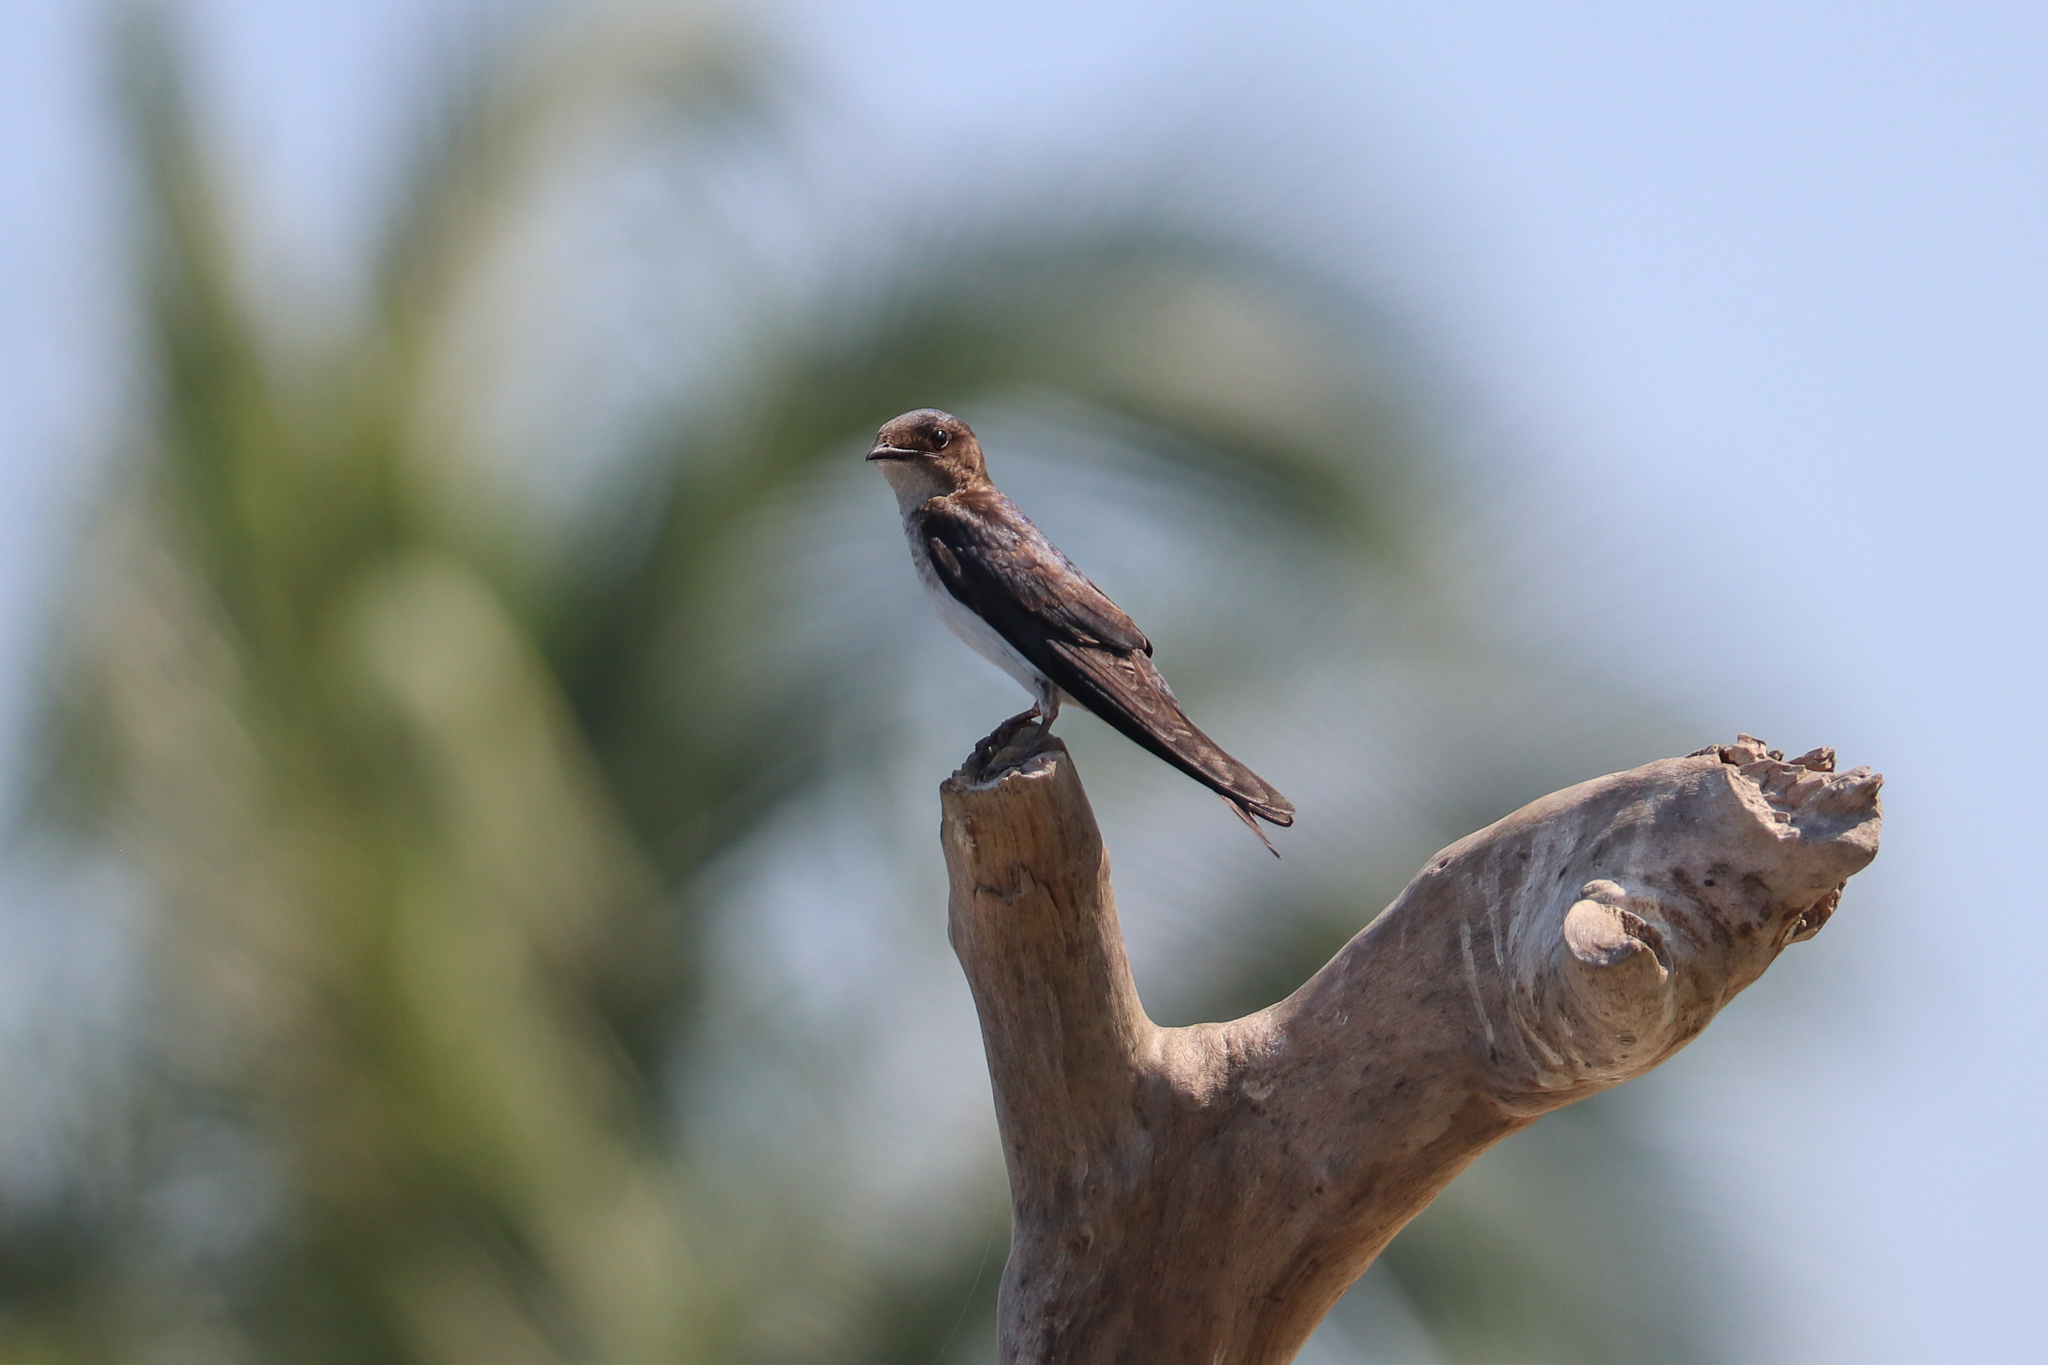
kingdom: Animalia
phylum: Chordata
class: Aves
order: Passeriformes
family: Hirundinidae
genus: Progne
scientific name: Progne subis
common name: Purple martin
